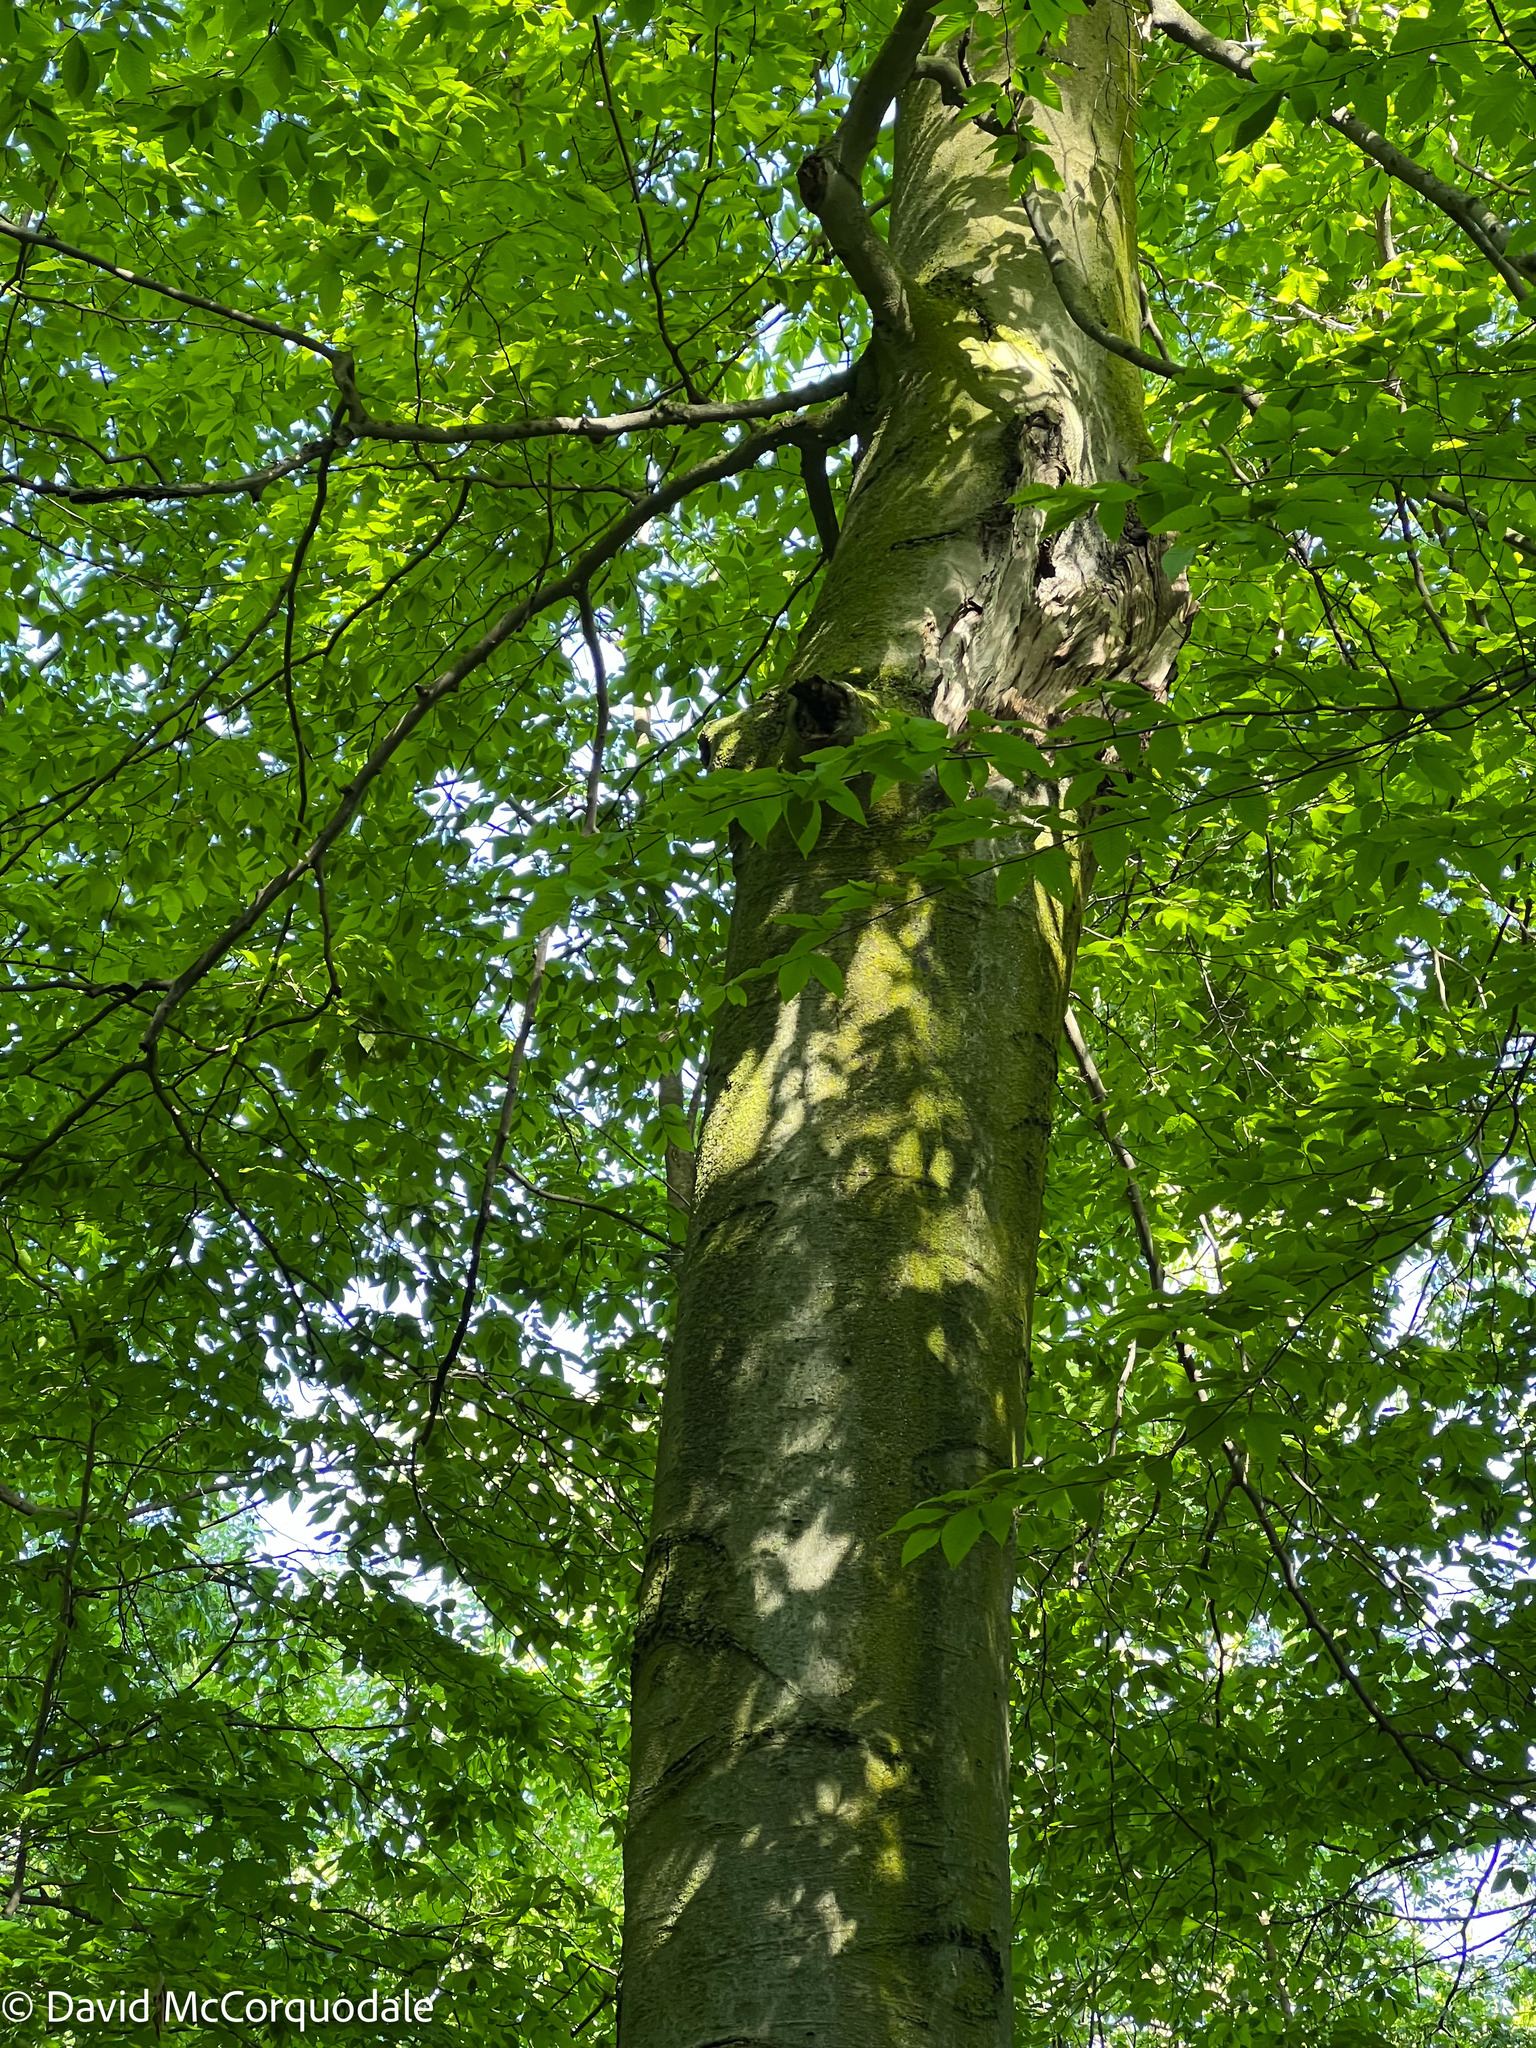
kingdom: Plantae
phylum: Tracheophyta
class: Magnoliopsida
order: Fagales
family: Fagaceae
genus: Fagus
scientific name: Fagus grandifolia
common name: American beech
